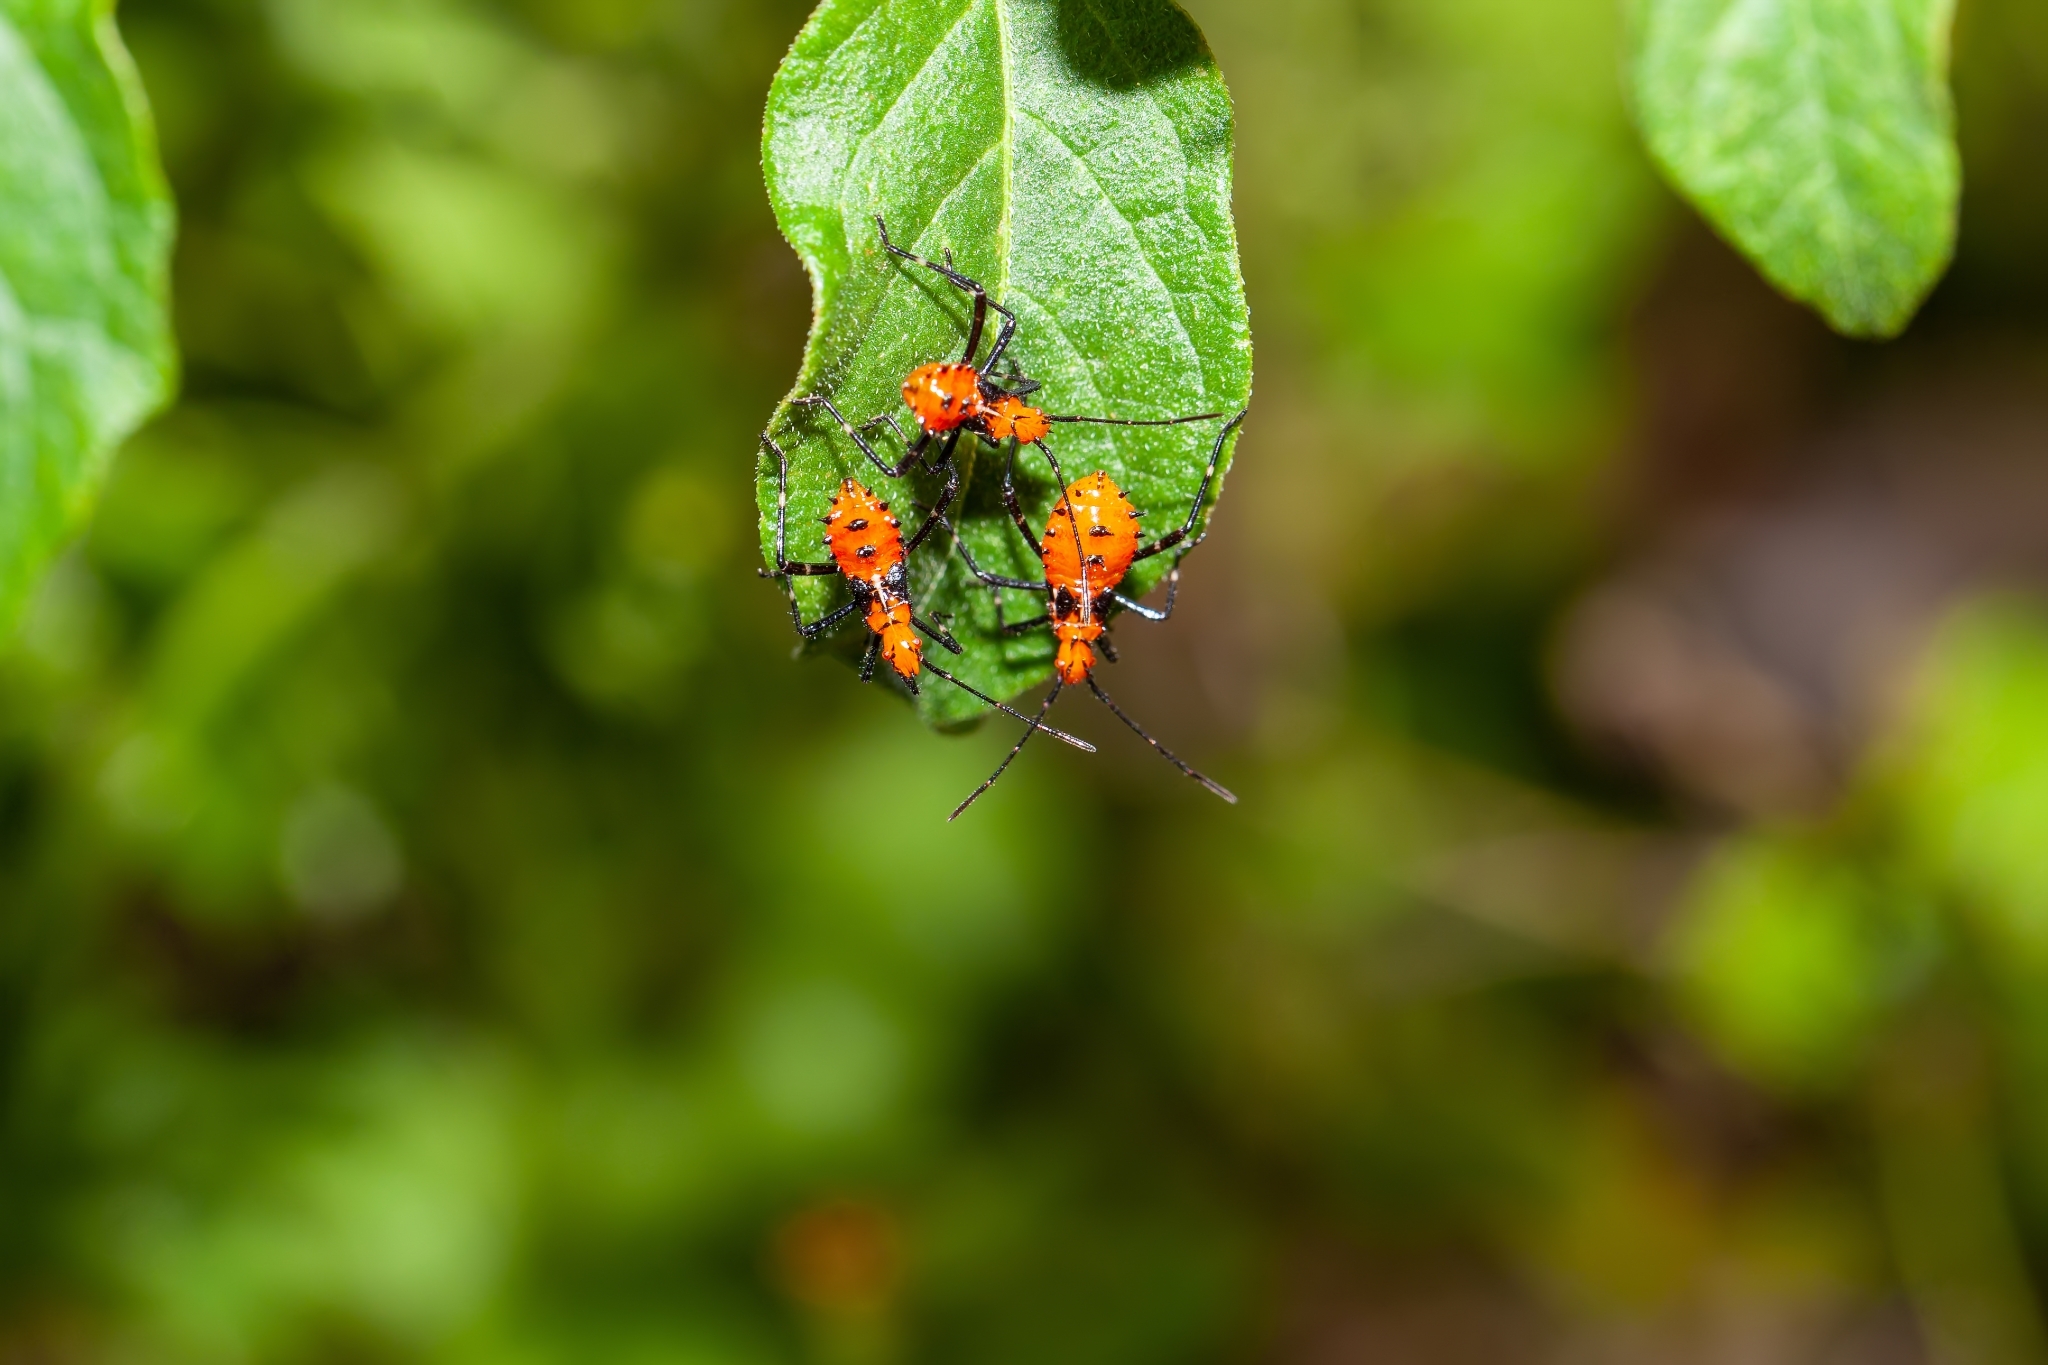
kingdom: Animalia
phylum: Arthropoda
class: Insecta
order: Hemiptera
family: Coreidae
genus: Phthiacnemia
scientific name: Phthiacnemia picta
